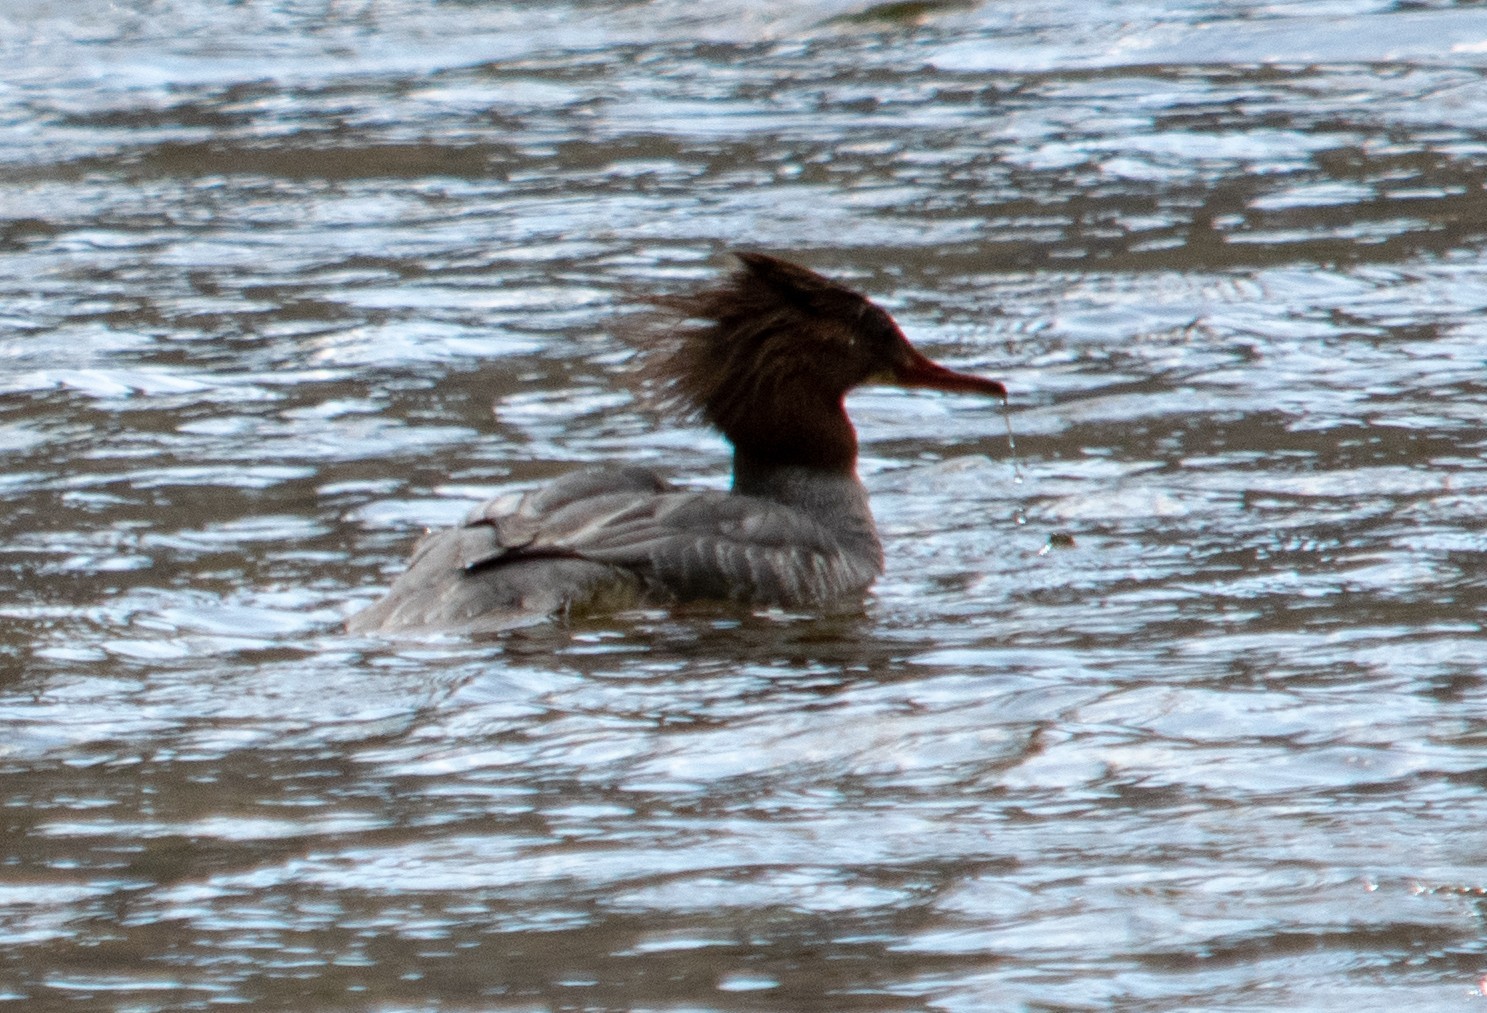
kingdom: Animalia
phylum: Chordata
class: Aves
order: Anseriformes
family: Anatidae
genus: Mergus
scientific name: Mergus merganser
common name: Common merganser
